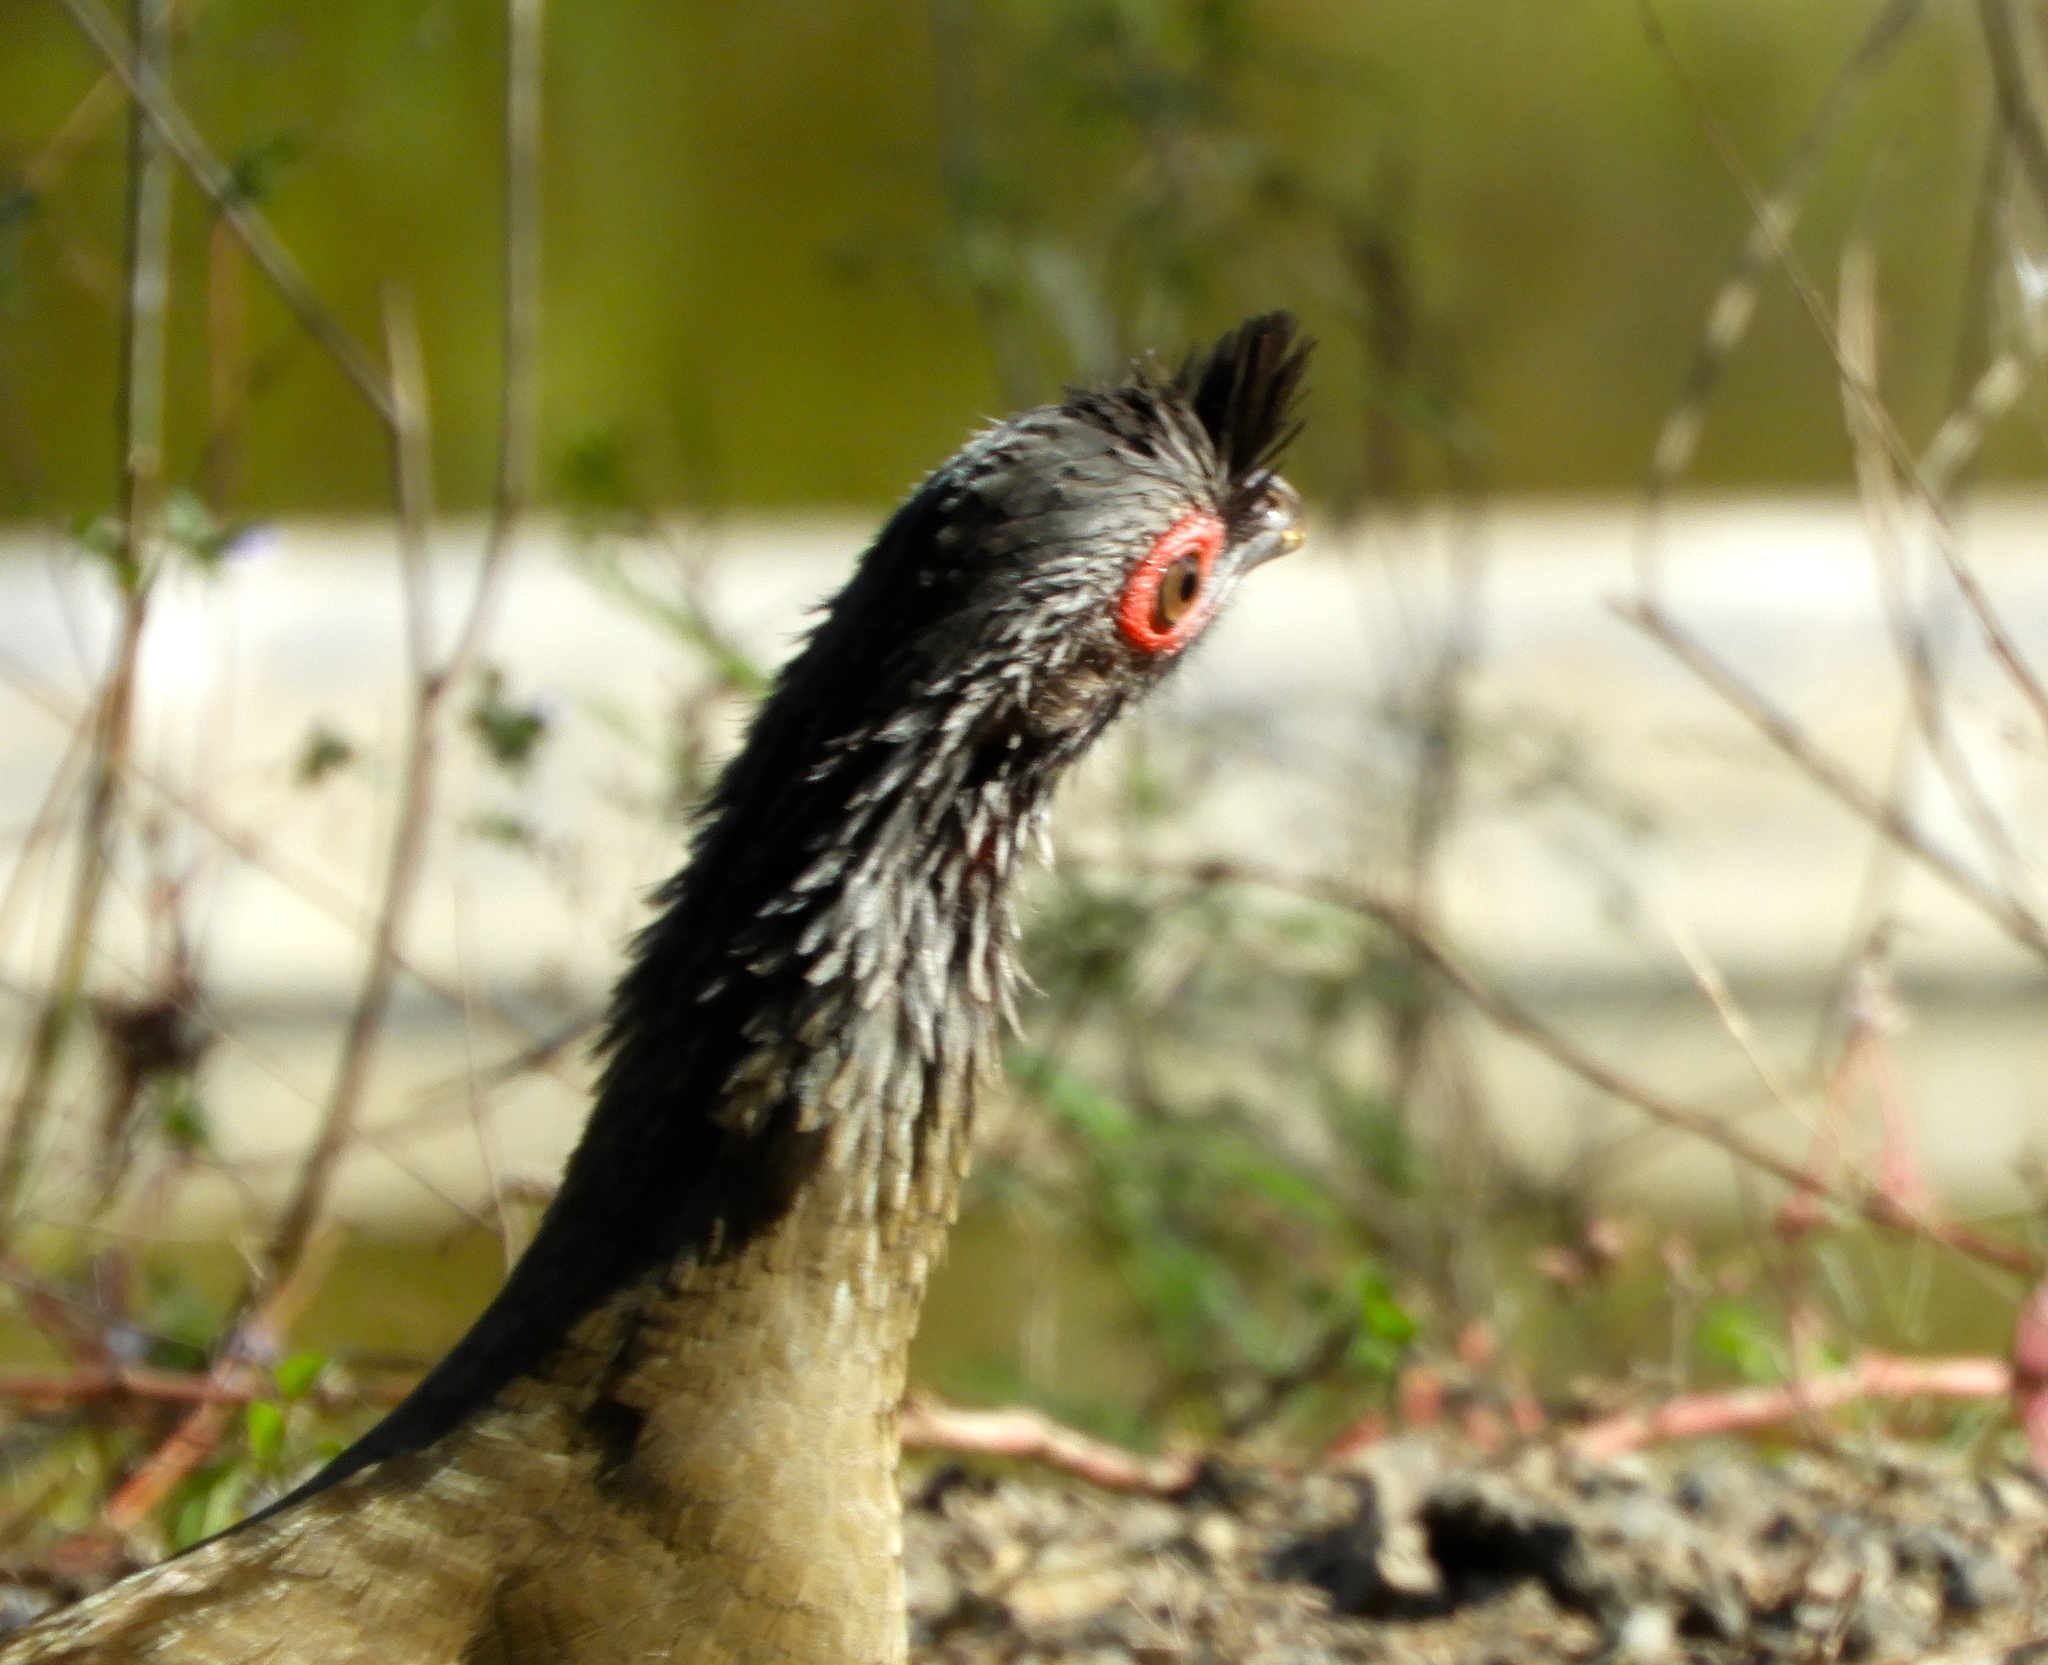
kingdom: Animalia
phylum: Chordata
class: Aves
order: Galliformes
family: Cracidae
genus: Ortalis
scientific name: Ortalis wagleri
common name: Rufous-bellied chachalaca
